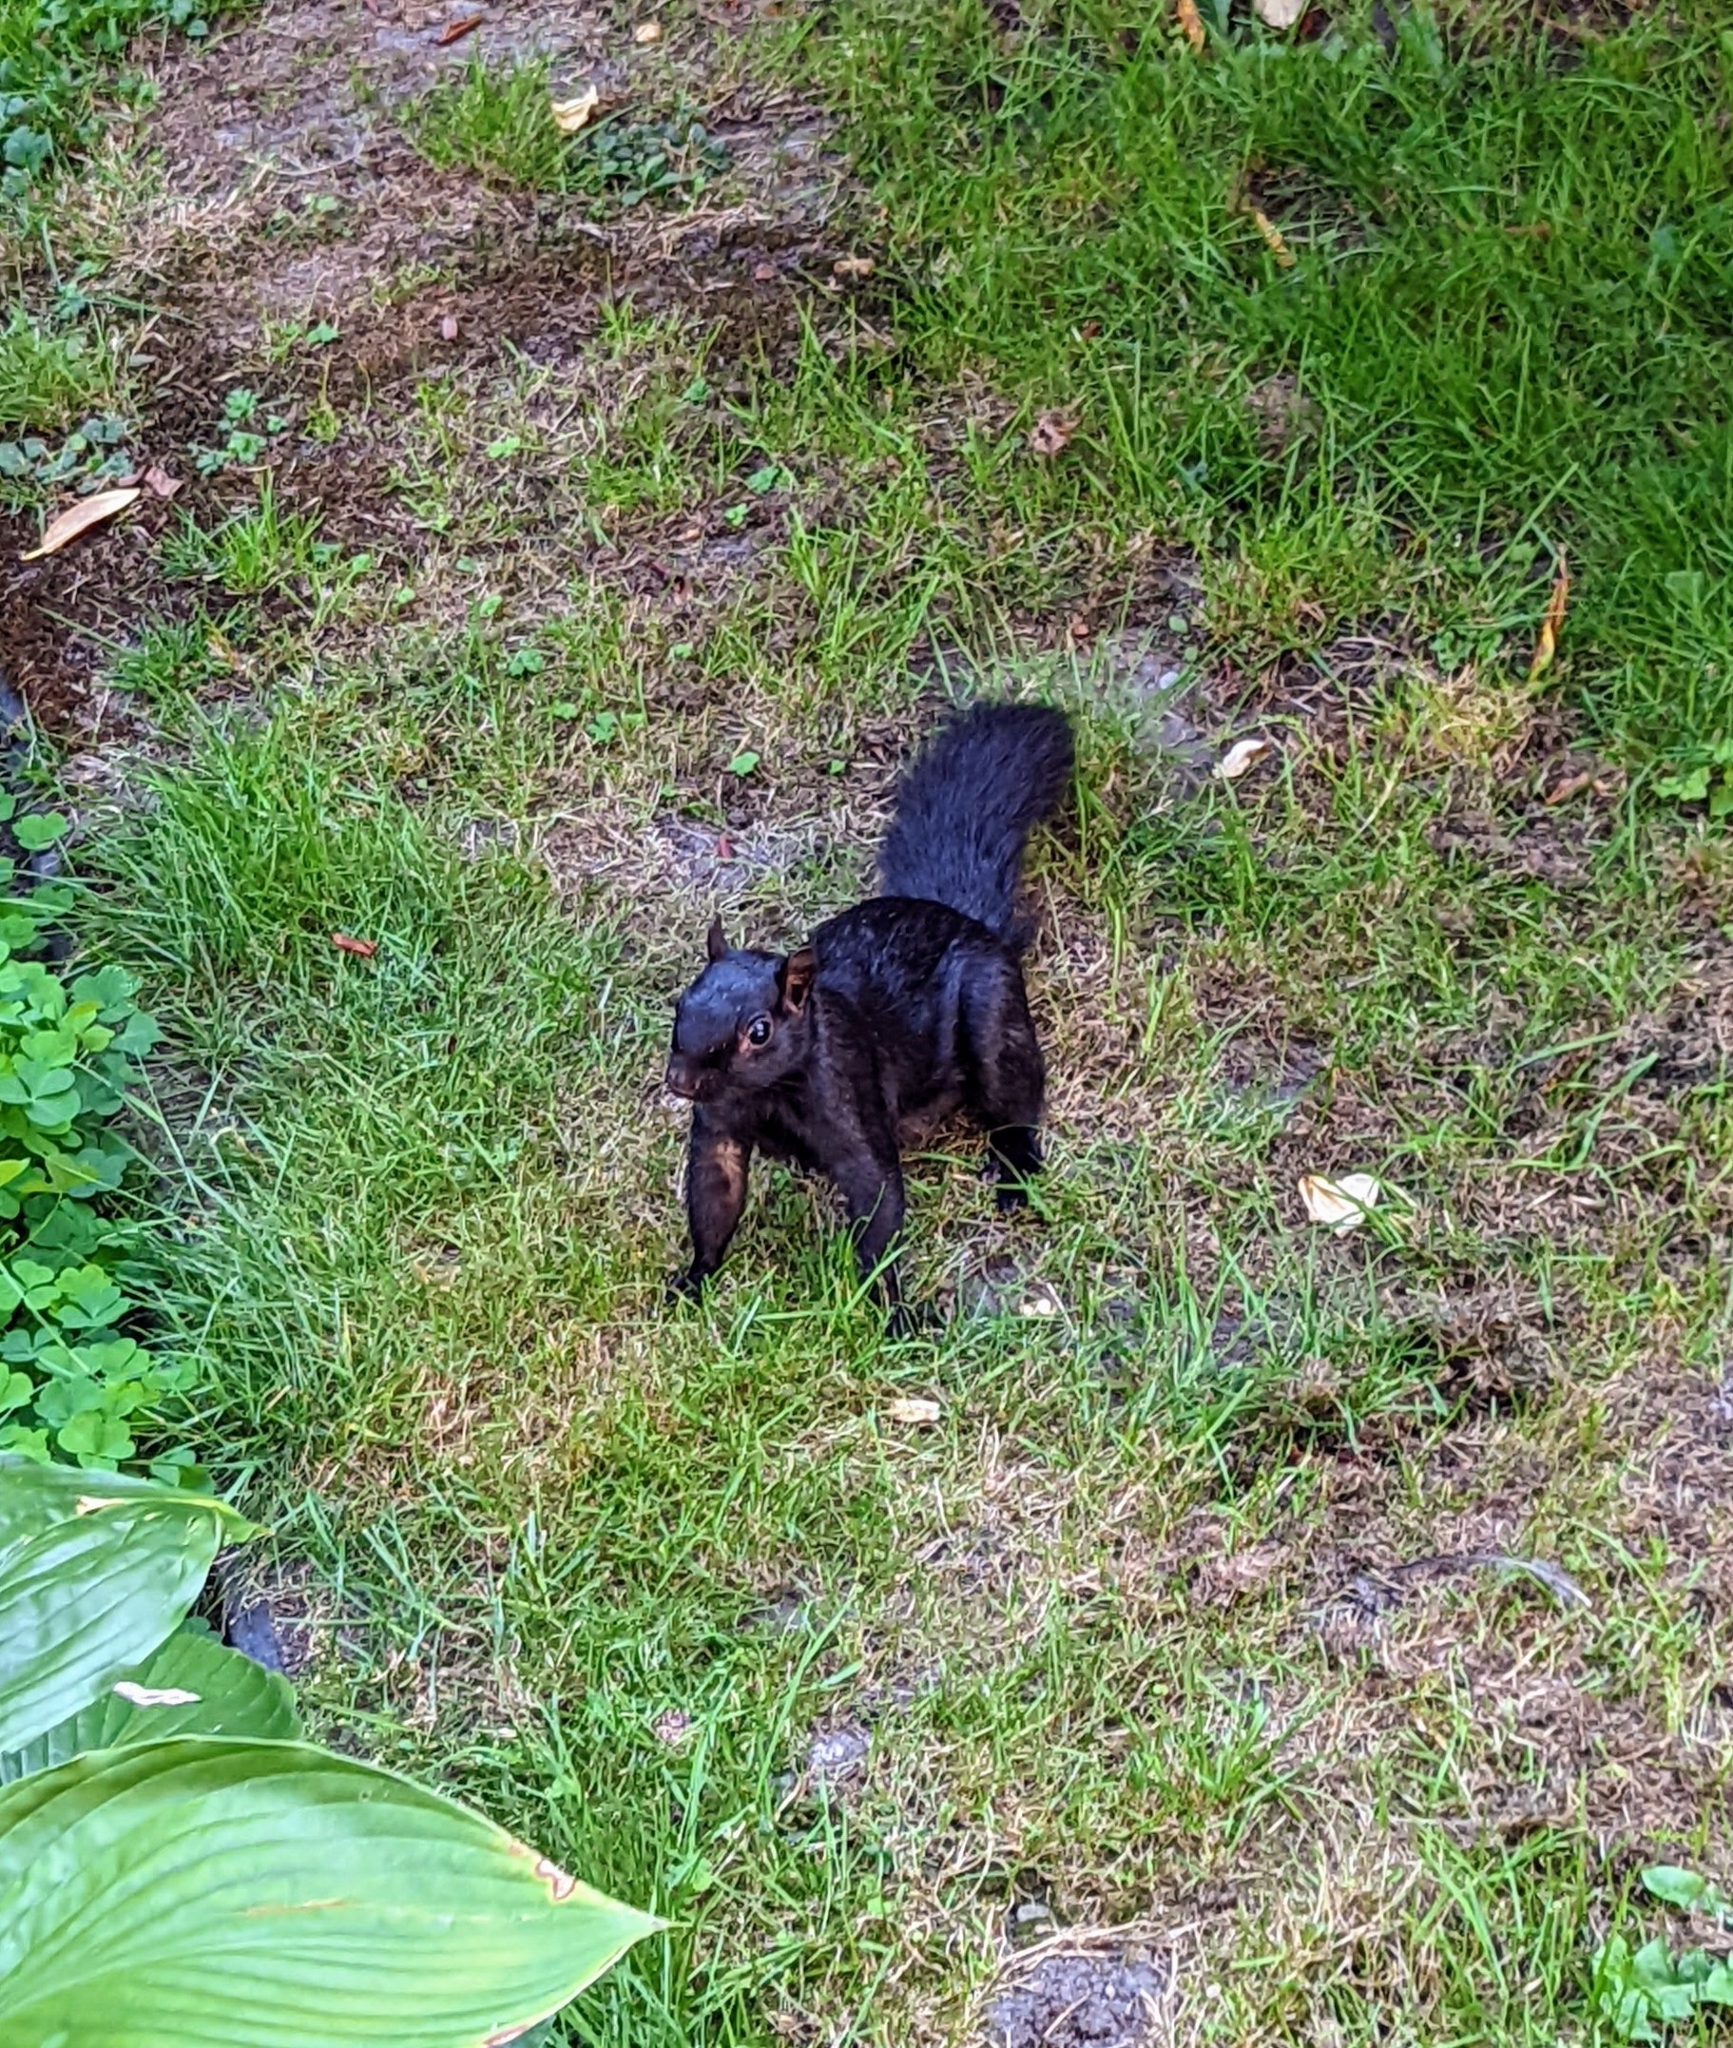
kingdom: Animalia
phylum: Chordata
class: Mammalia
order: Rodentia
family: Sciuridae
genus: Sciurus
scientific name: Sciurus carolinensis
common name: Eastern gray squirrel
